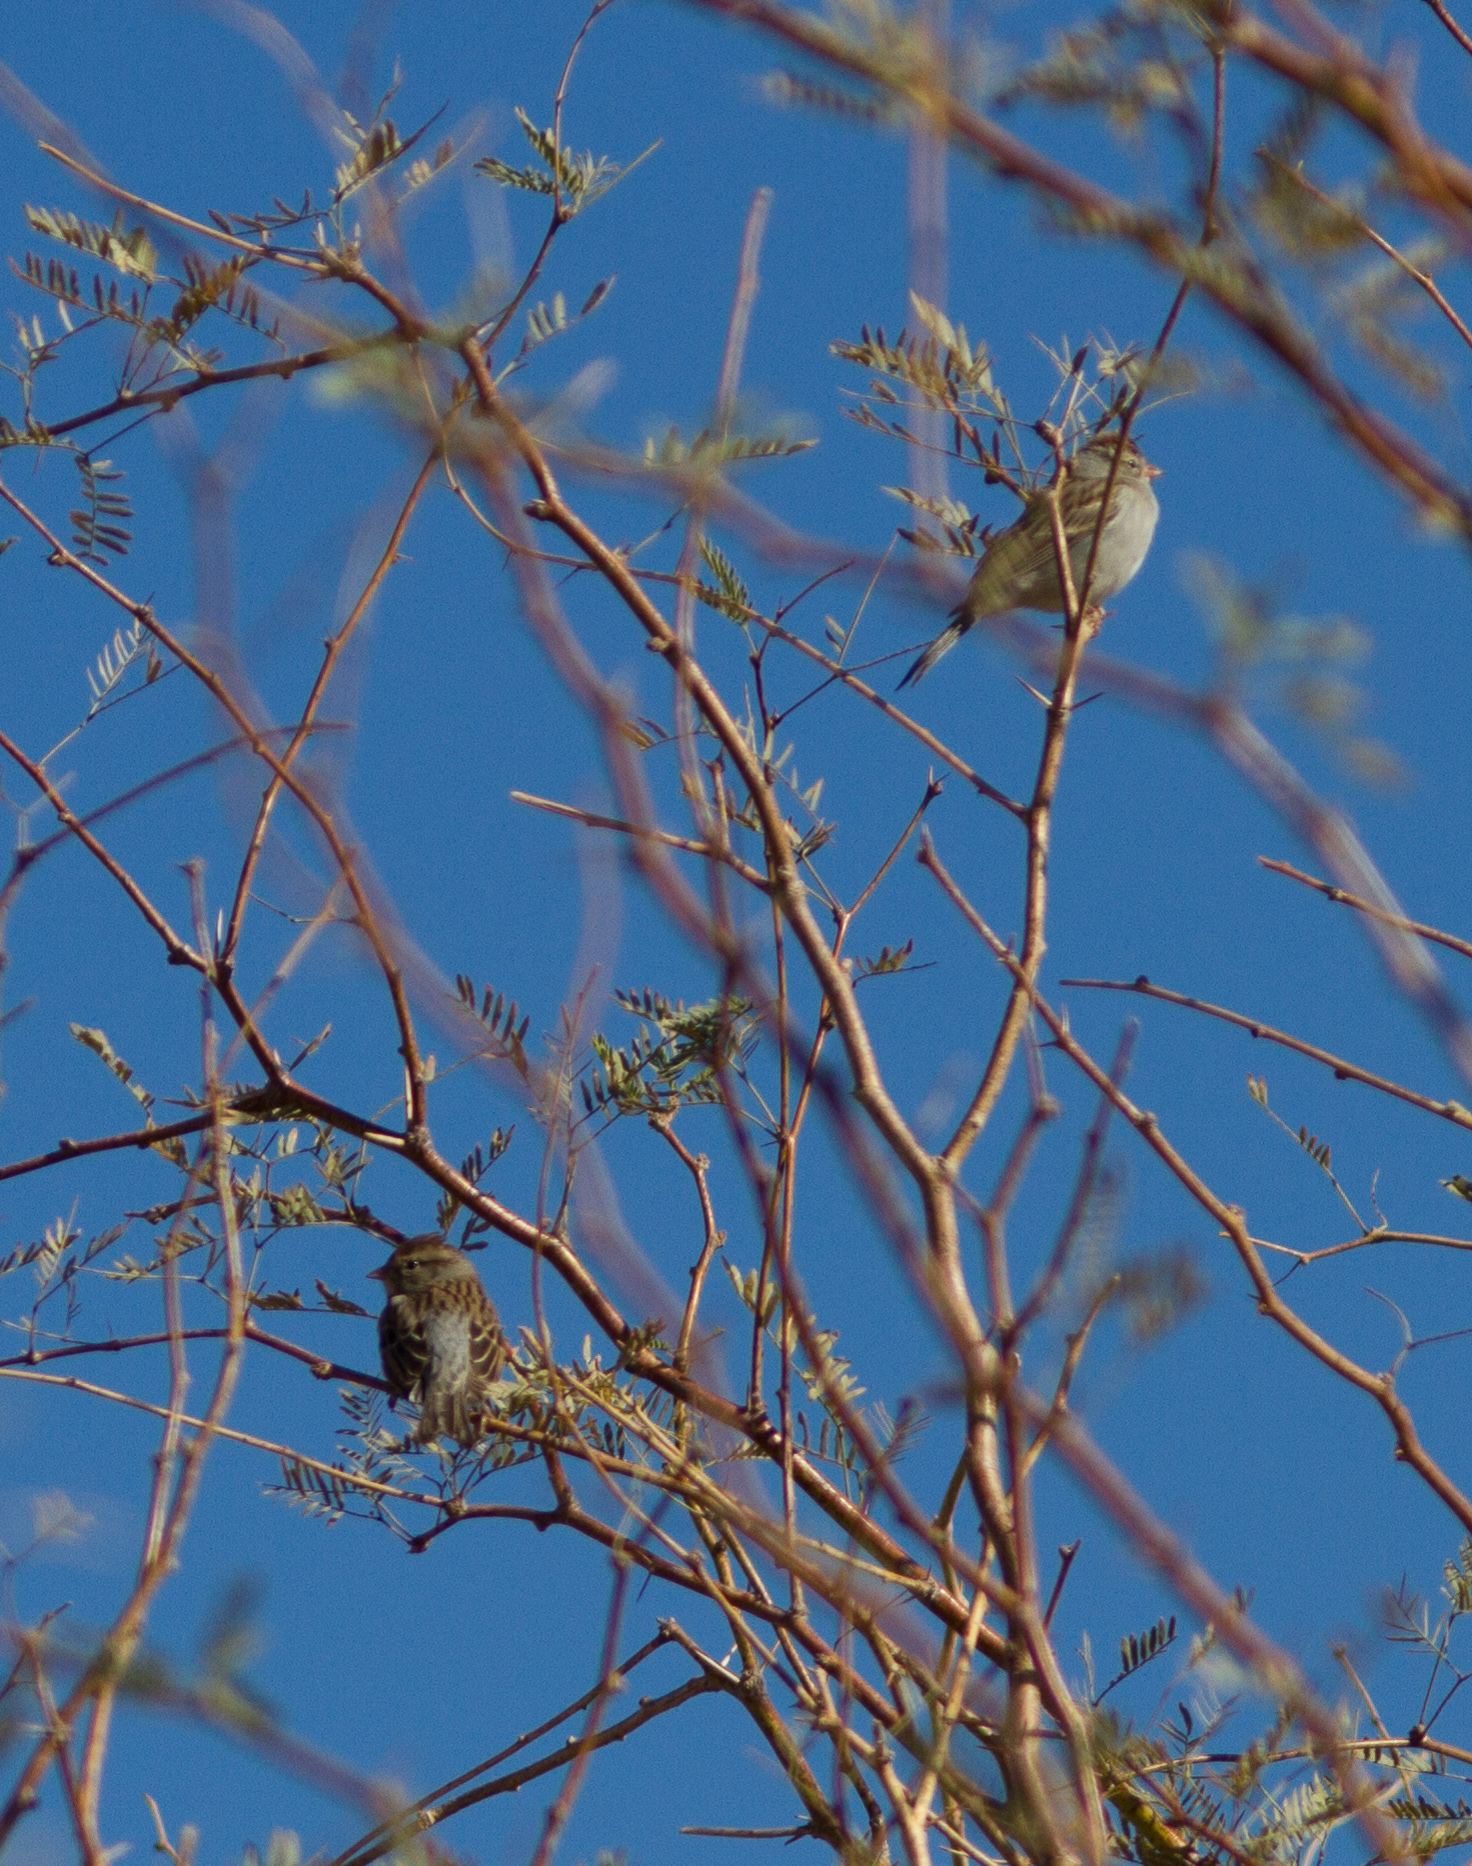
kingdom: Animalia
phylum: Chordata
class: Aves
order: Passeriformes
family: Passerellidae
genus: Spizella
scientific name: Spizella passerina
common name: Chipping sparrow
